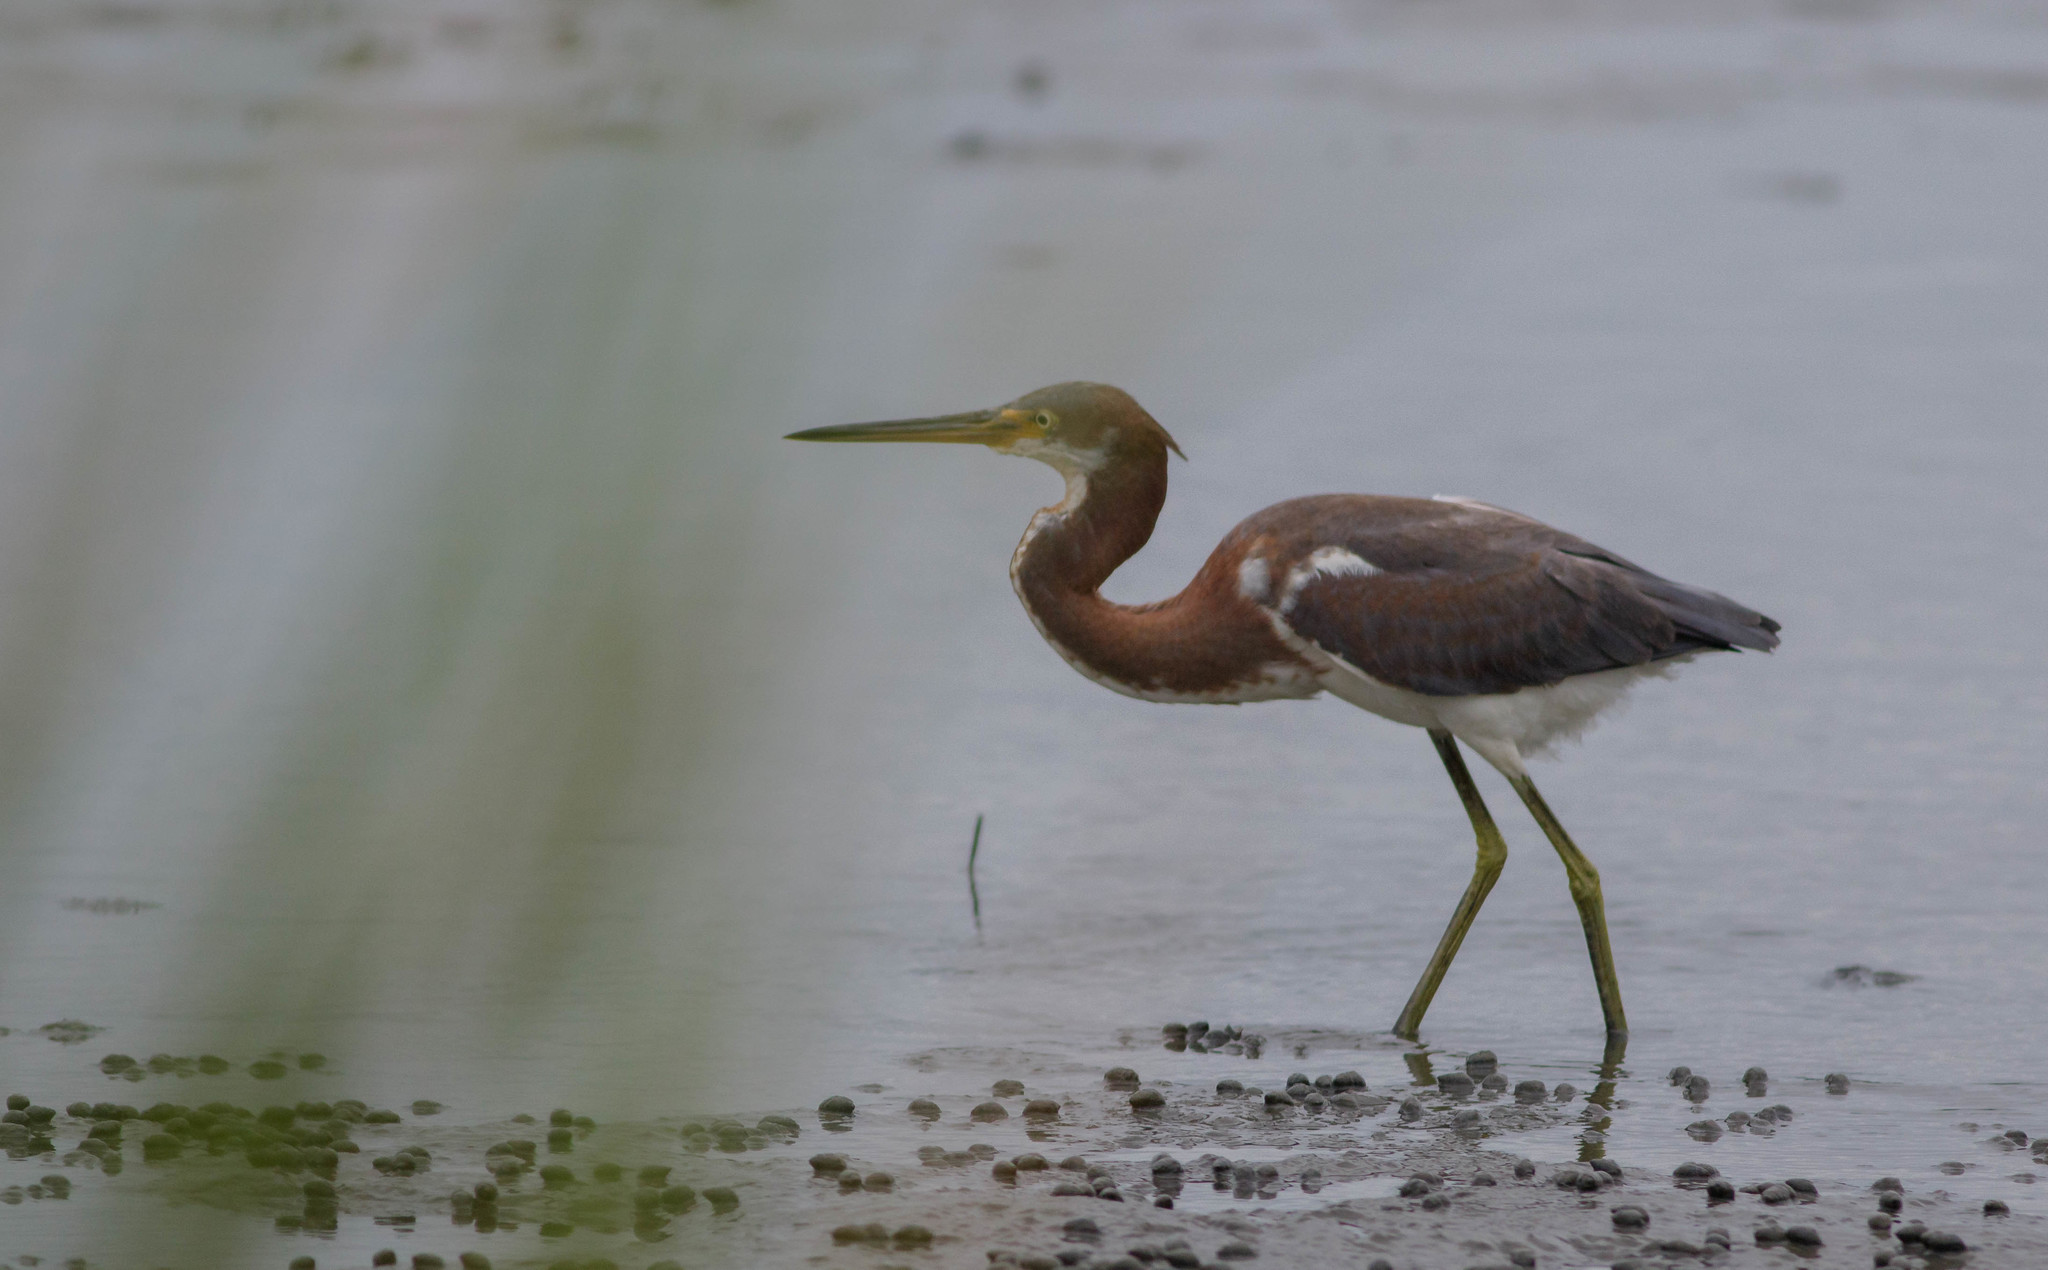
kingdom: Animalia
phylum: Chordata
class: Aves
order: Pelecaniformes
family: Ardeidae
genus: Egretta
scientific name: Egretta tricolor
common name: Tricolored heron
